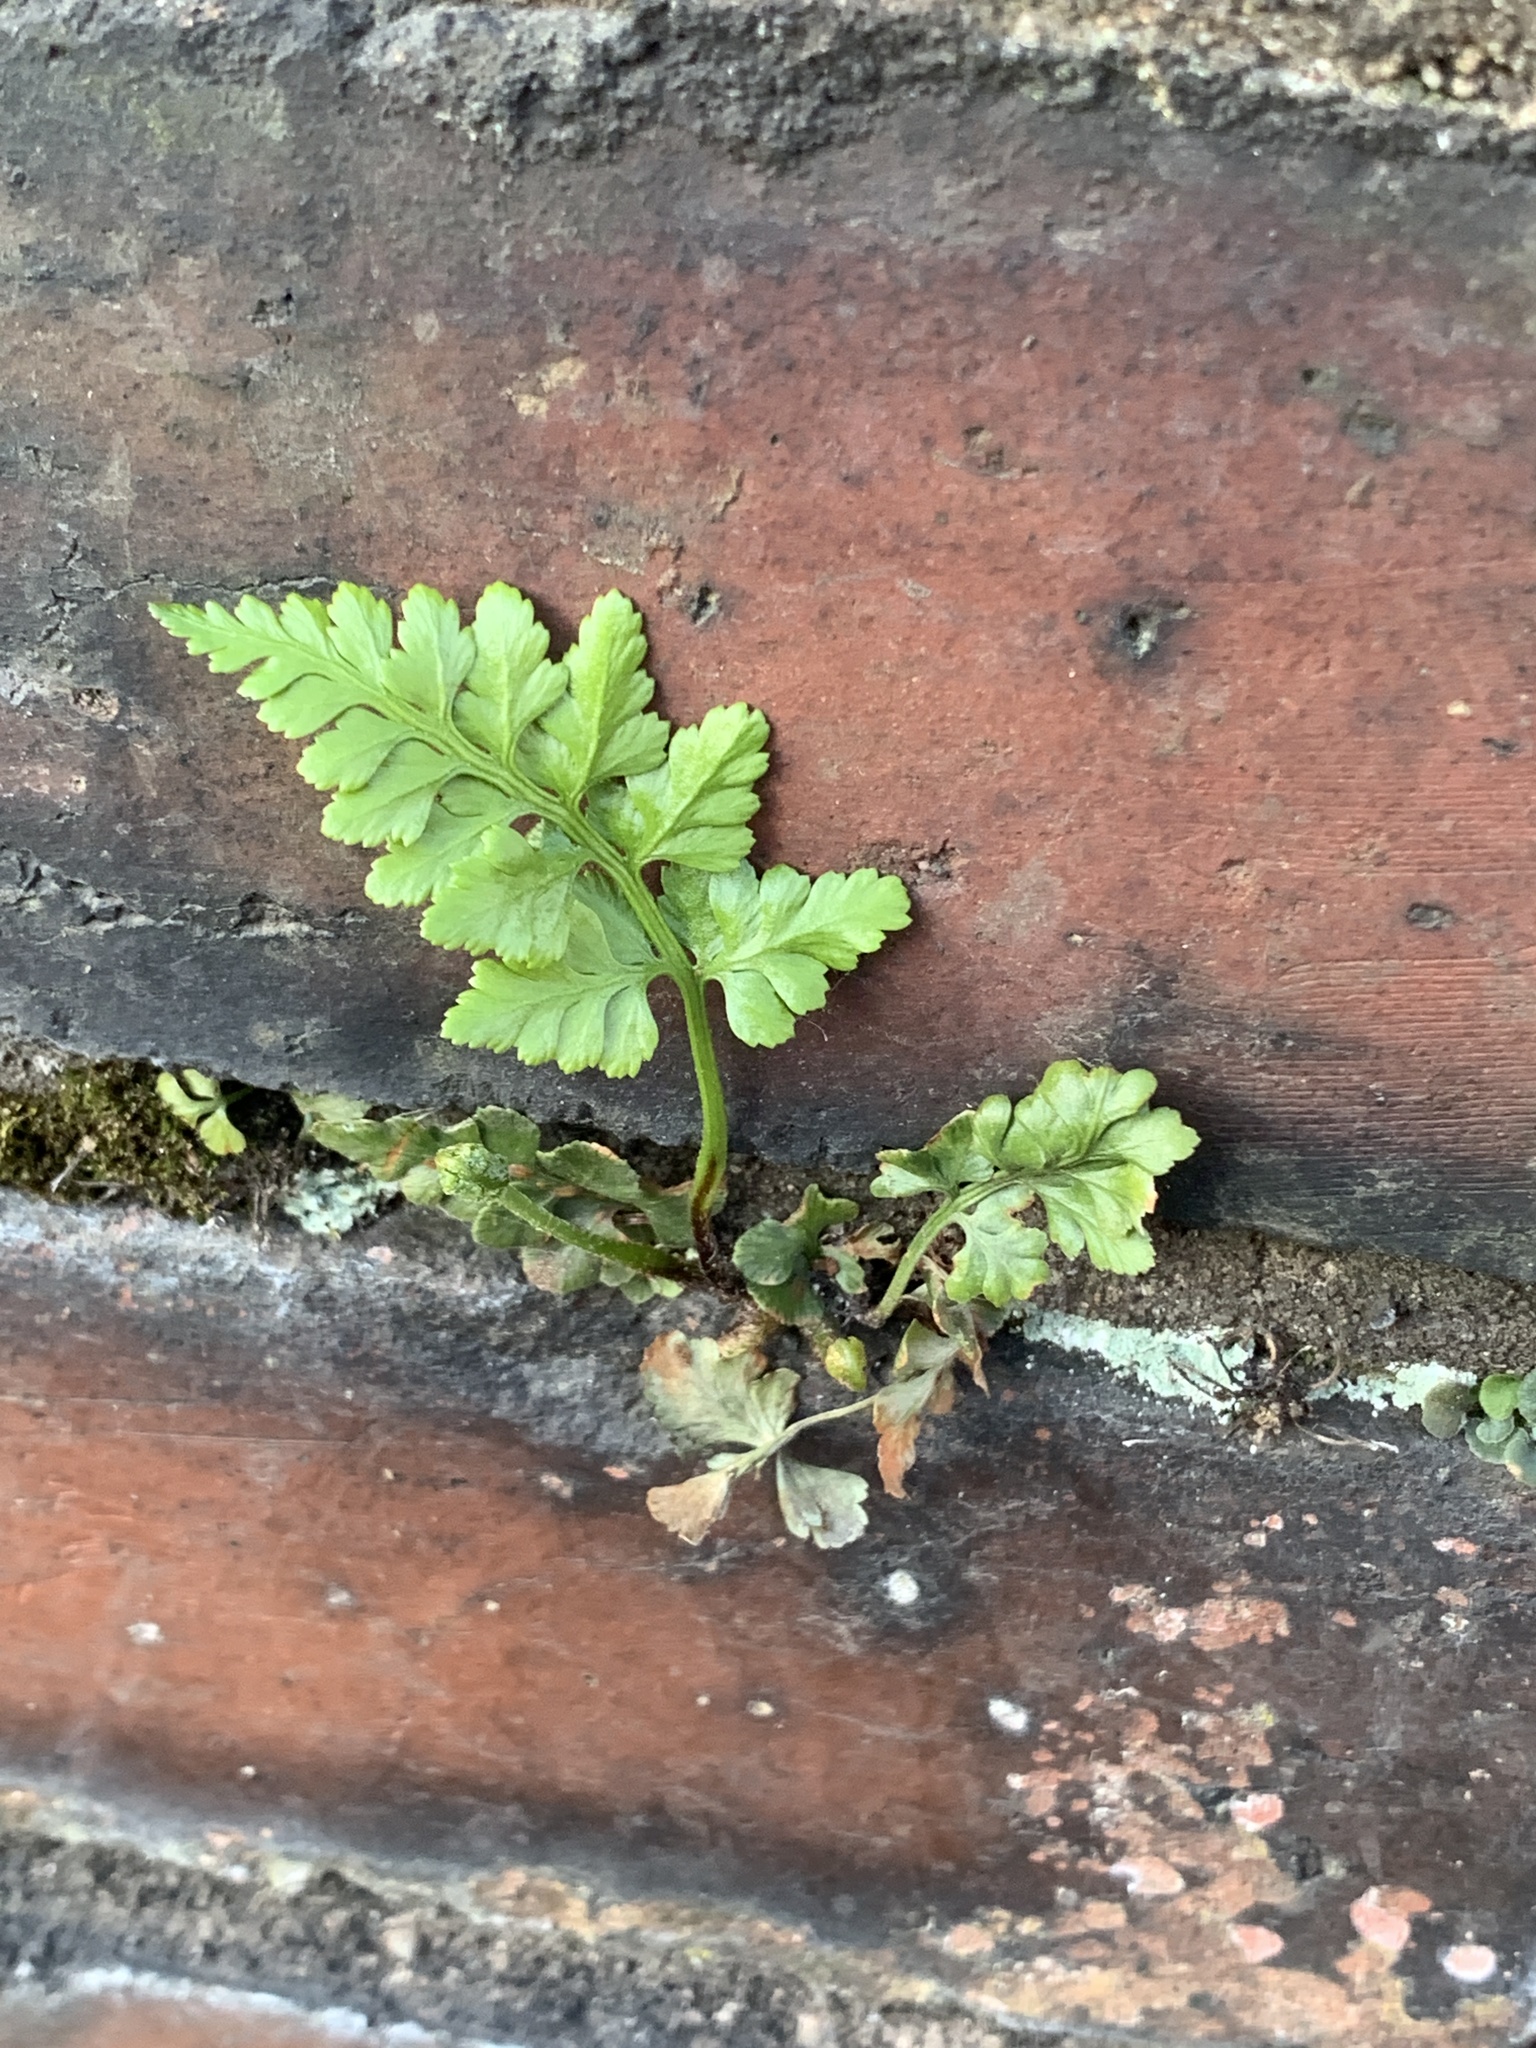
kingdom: Plantae
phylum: Tracheophyta
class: Polypodiopsida
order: Polypodiales
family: Aspleniaceae
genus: Asplenium
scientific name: Asplenium adiantum-nigrum
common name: Black spleenwort
